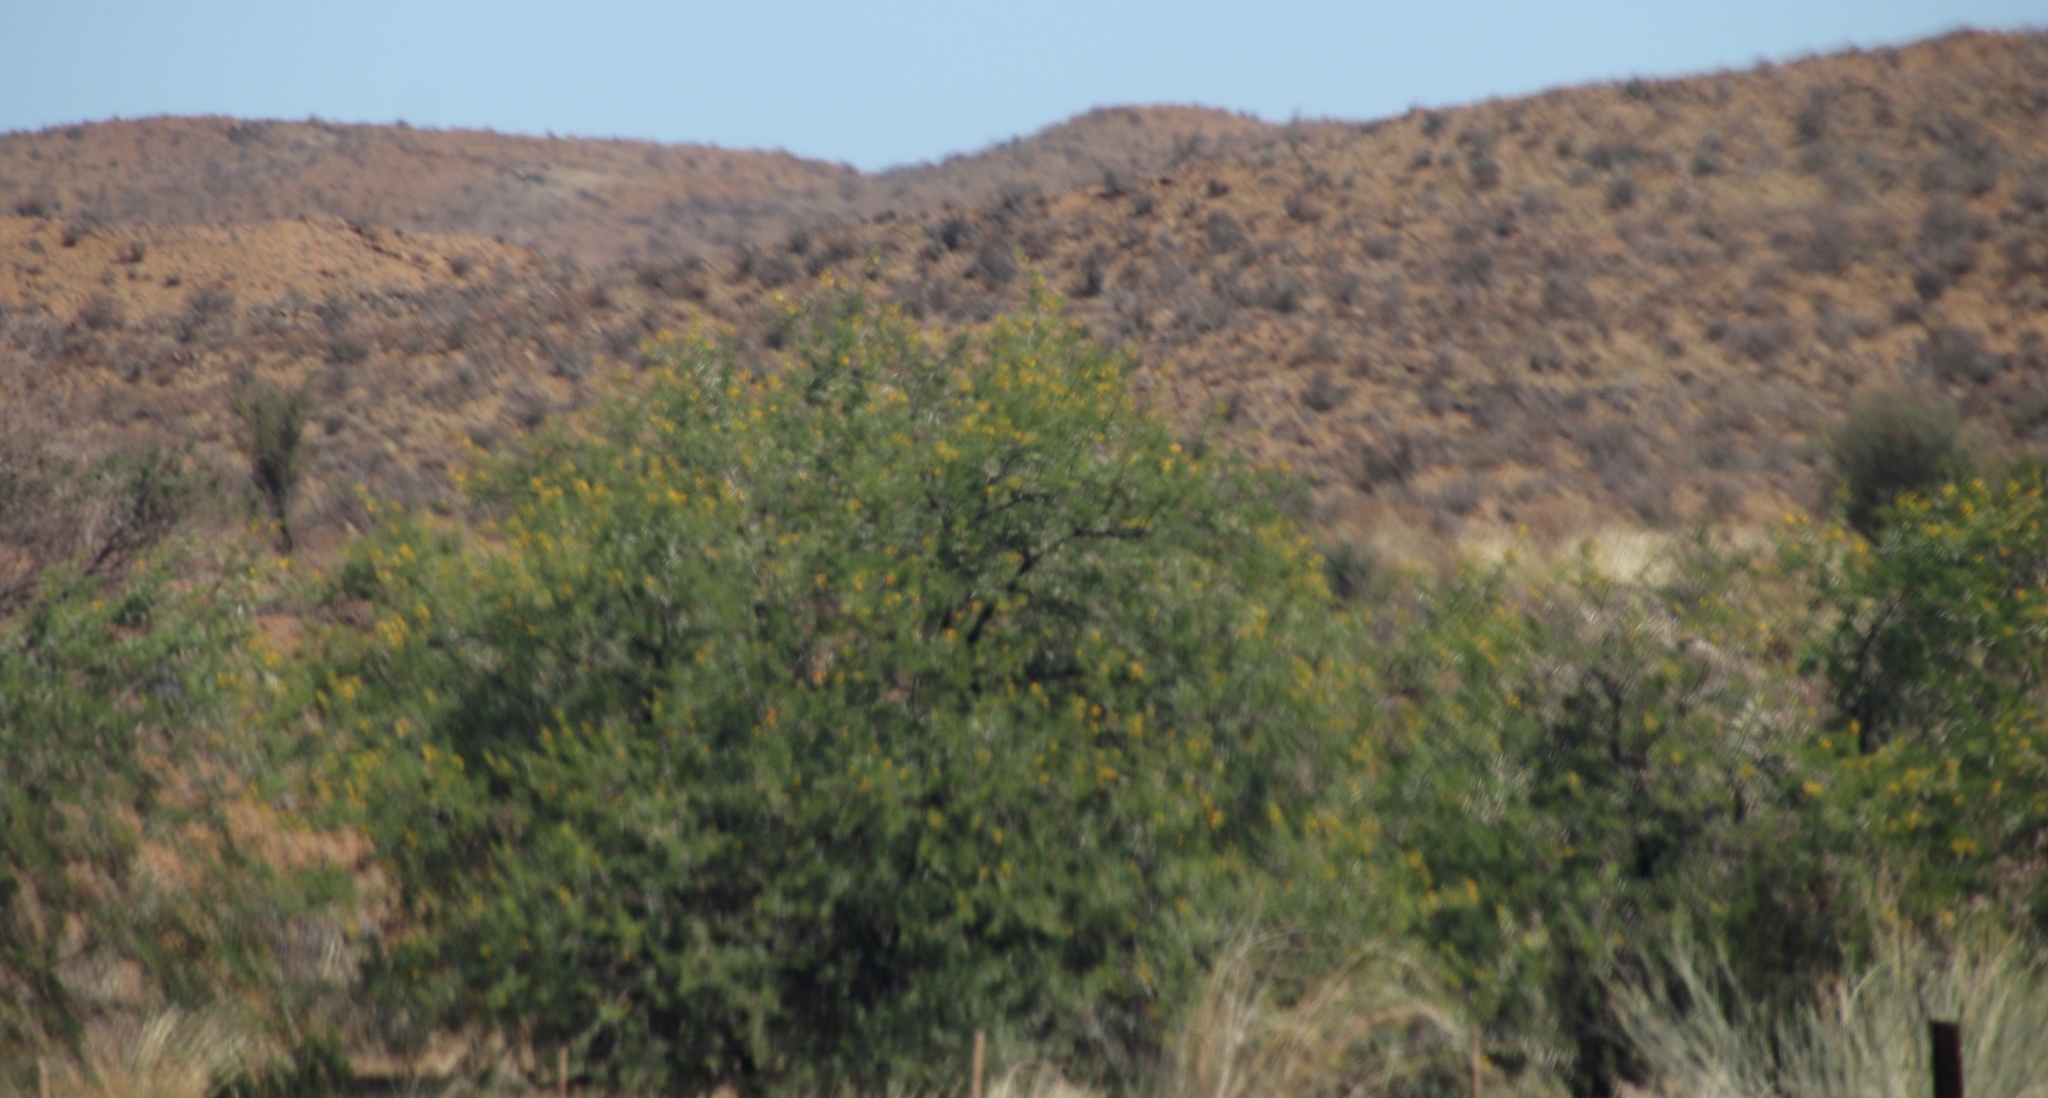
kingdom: Plantae
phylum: Tracheophyta
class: Magnoliopsida
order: Fabales
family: Fabaceae
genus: Vachellia
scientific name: Vachellia karroo
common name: Sweet thorn
